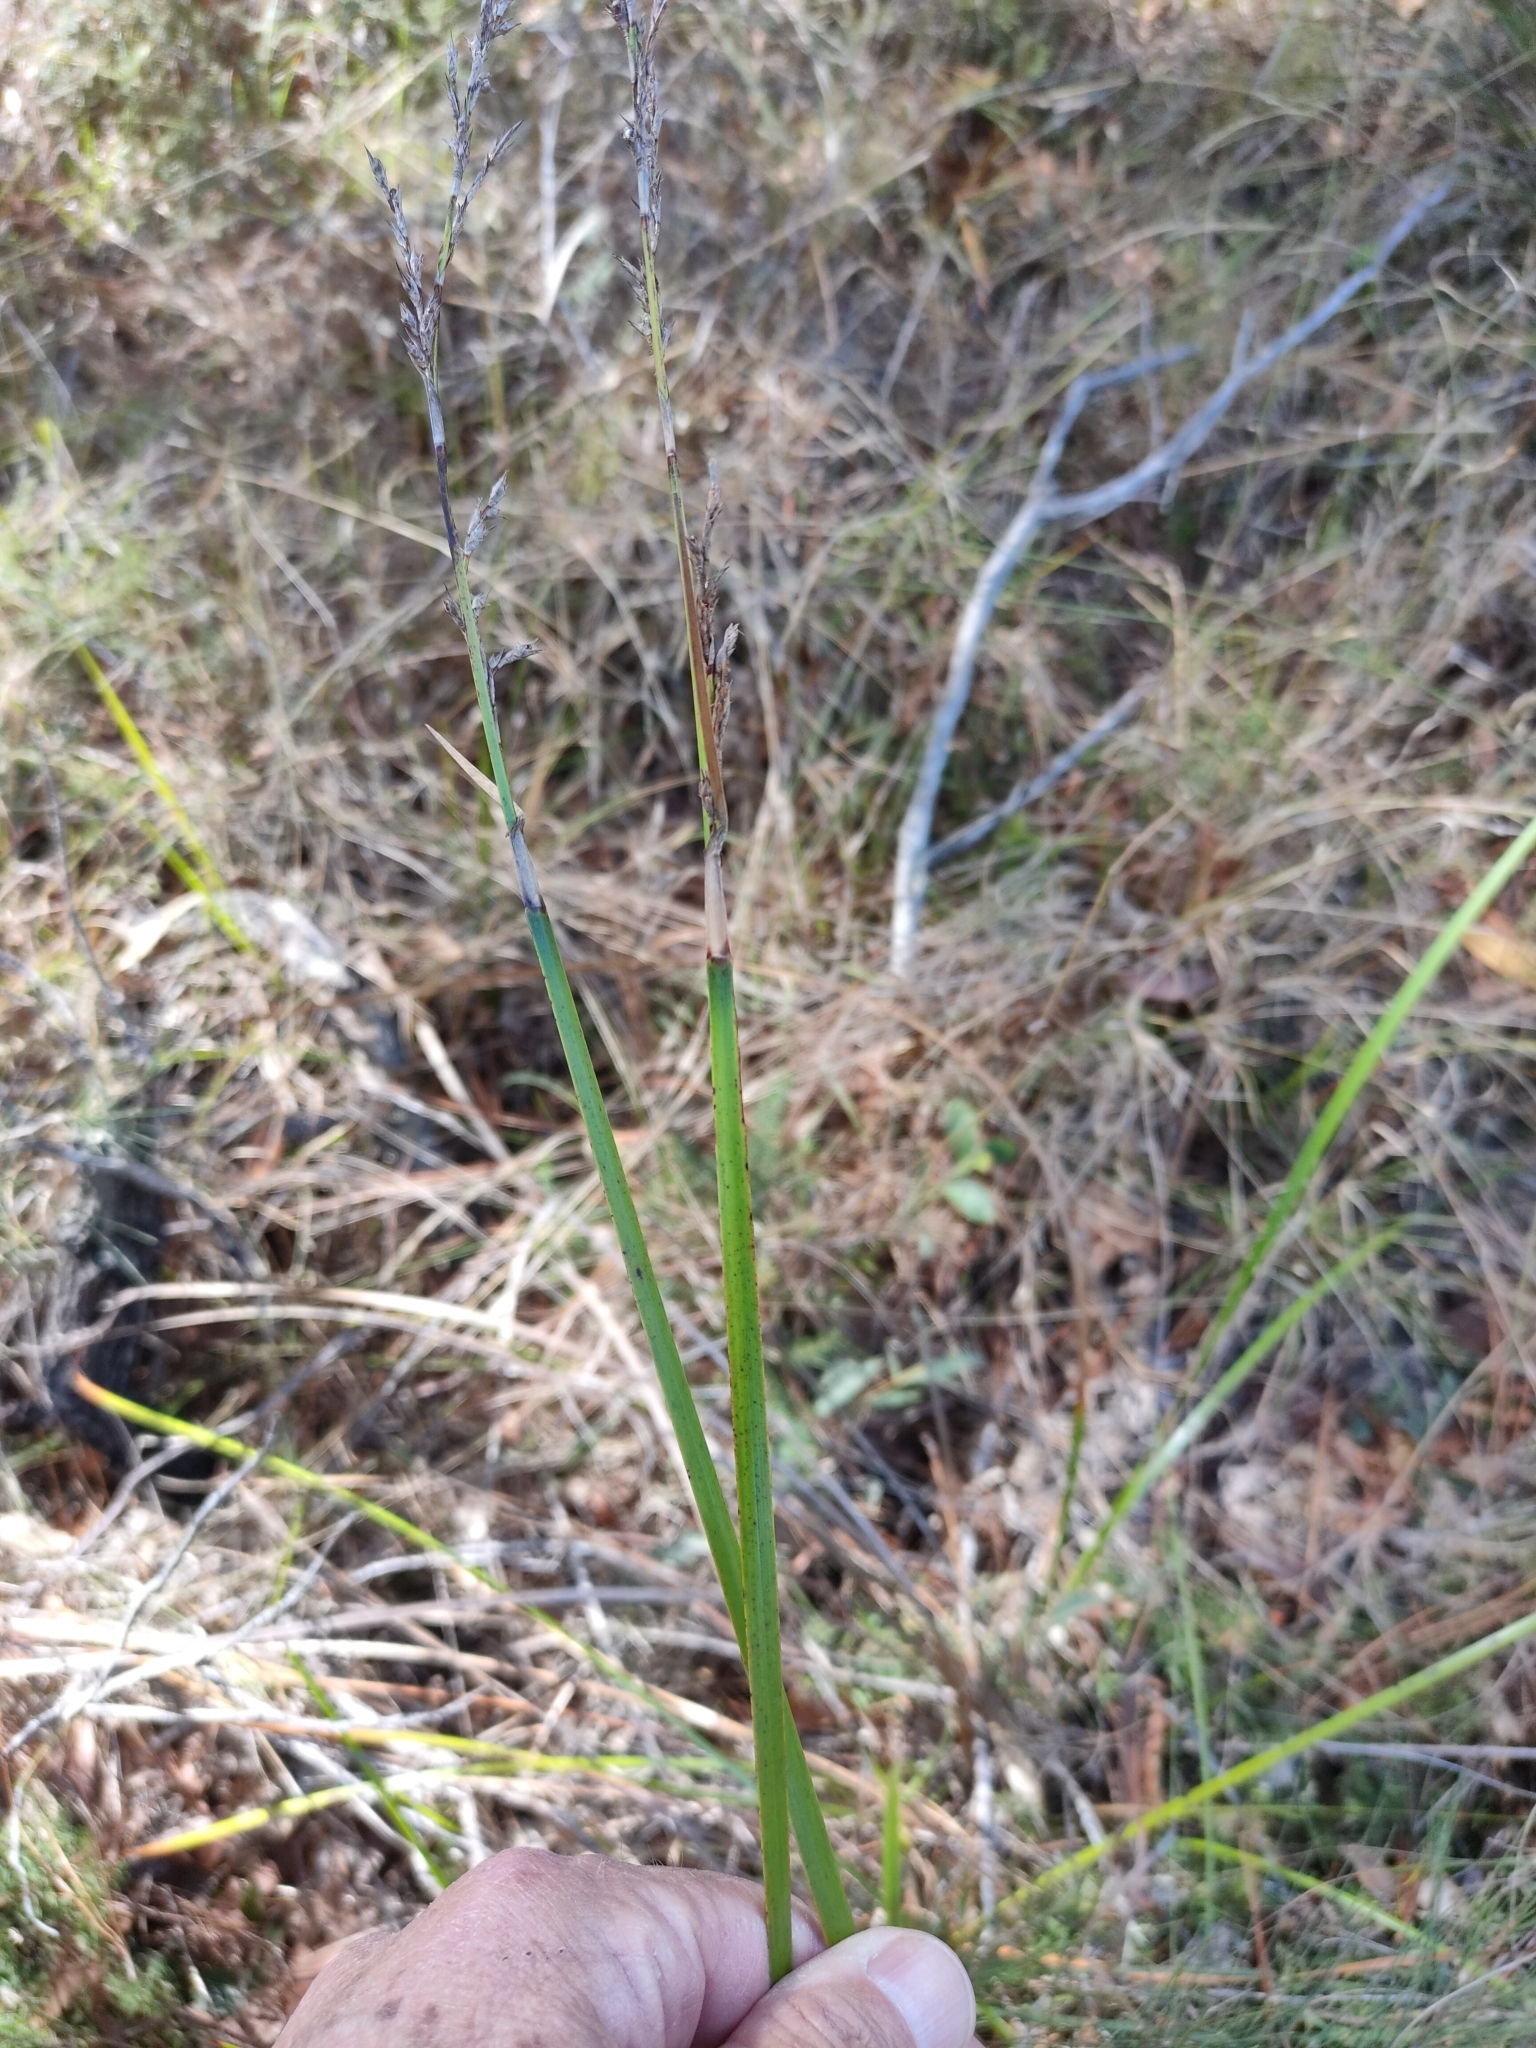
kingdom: Plantae
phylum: Tracheophyta
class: Liliopsida
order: Poales
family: Cyperaceae
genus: Lepidosperma
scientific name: Lepidosperma laterale
